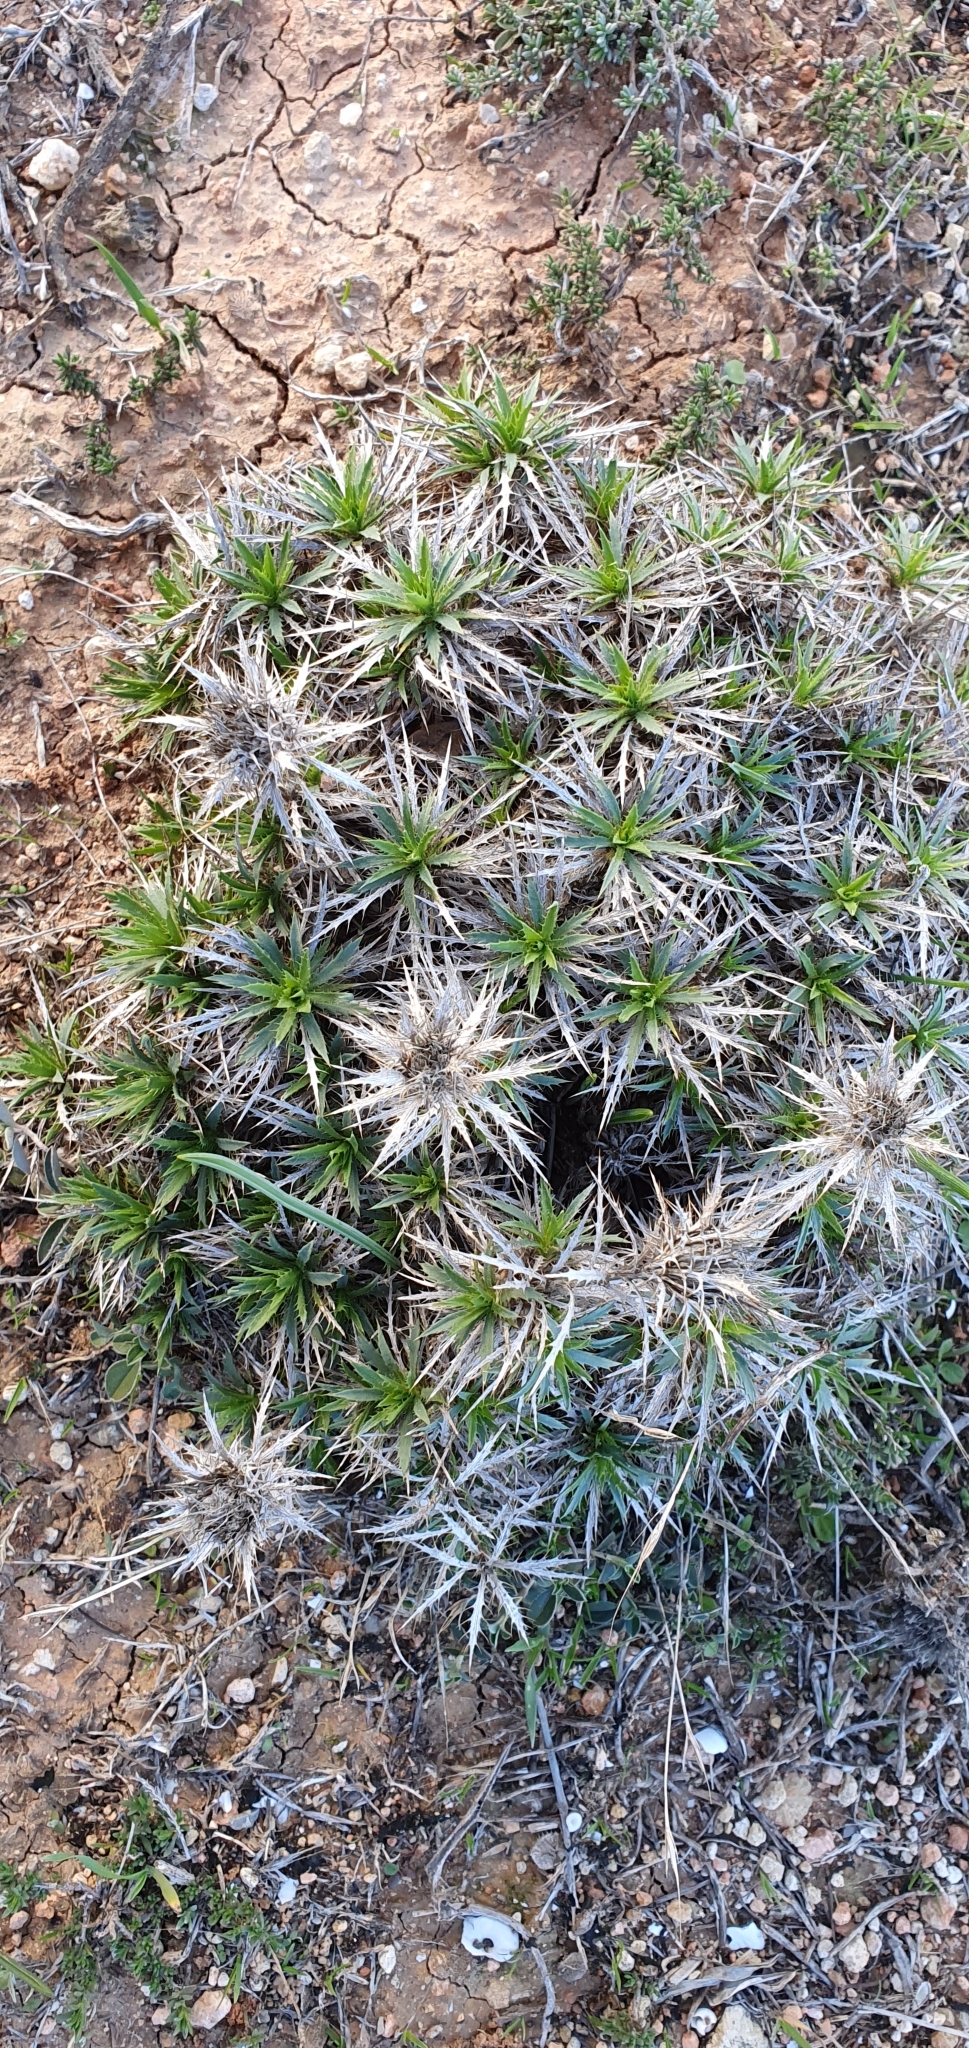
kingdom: Plantae
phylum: Tracheophyta
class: Magnoliopsida
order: Asterales
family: Asteraceae
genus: Atractylis
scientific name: Atractylis caespitosa
